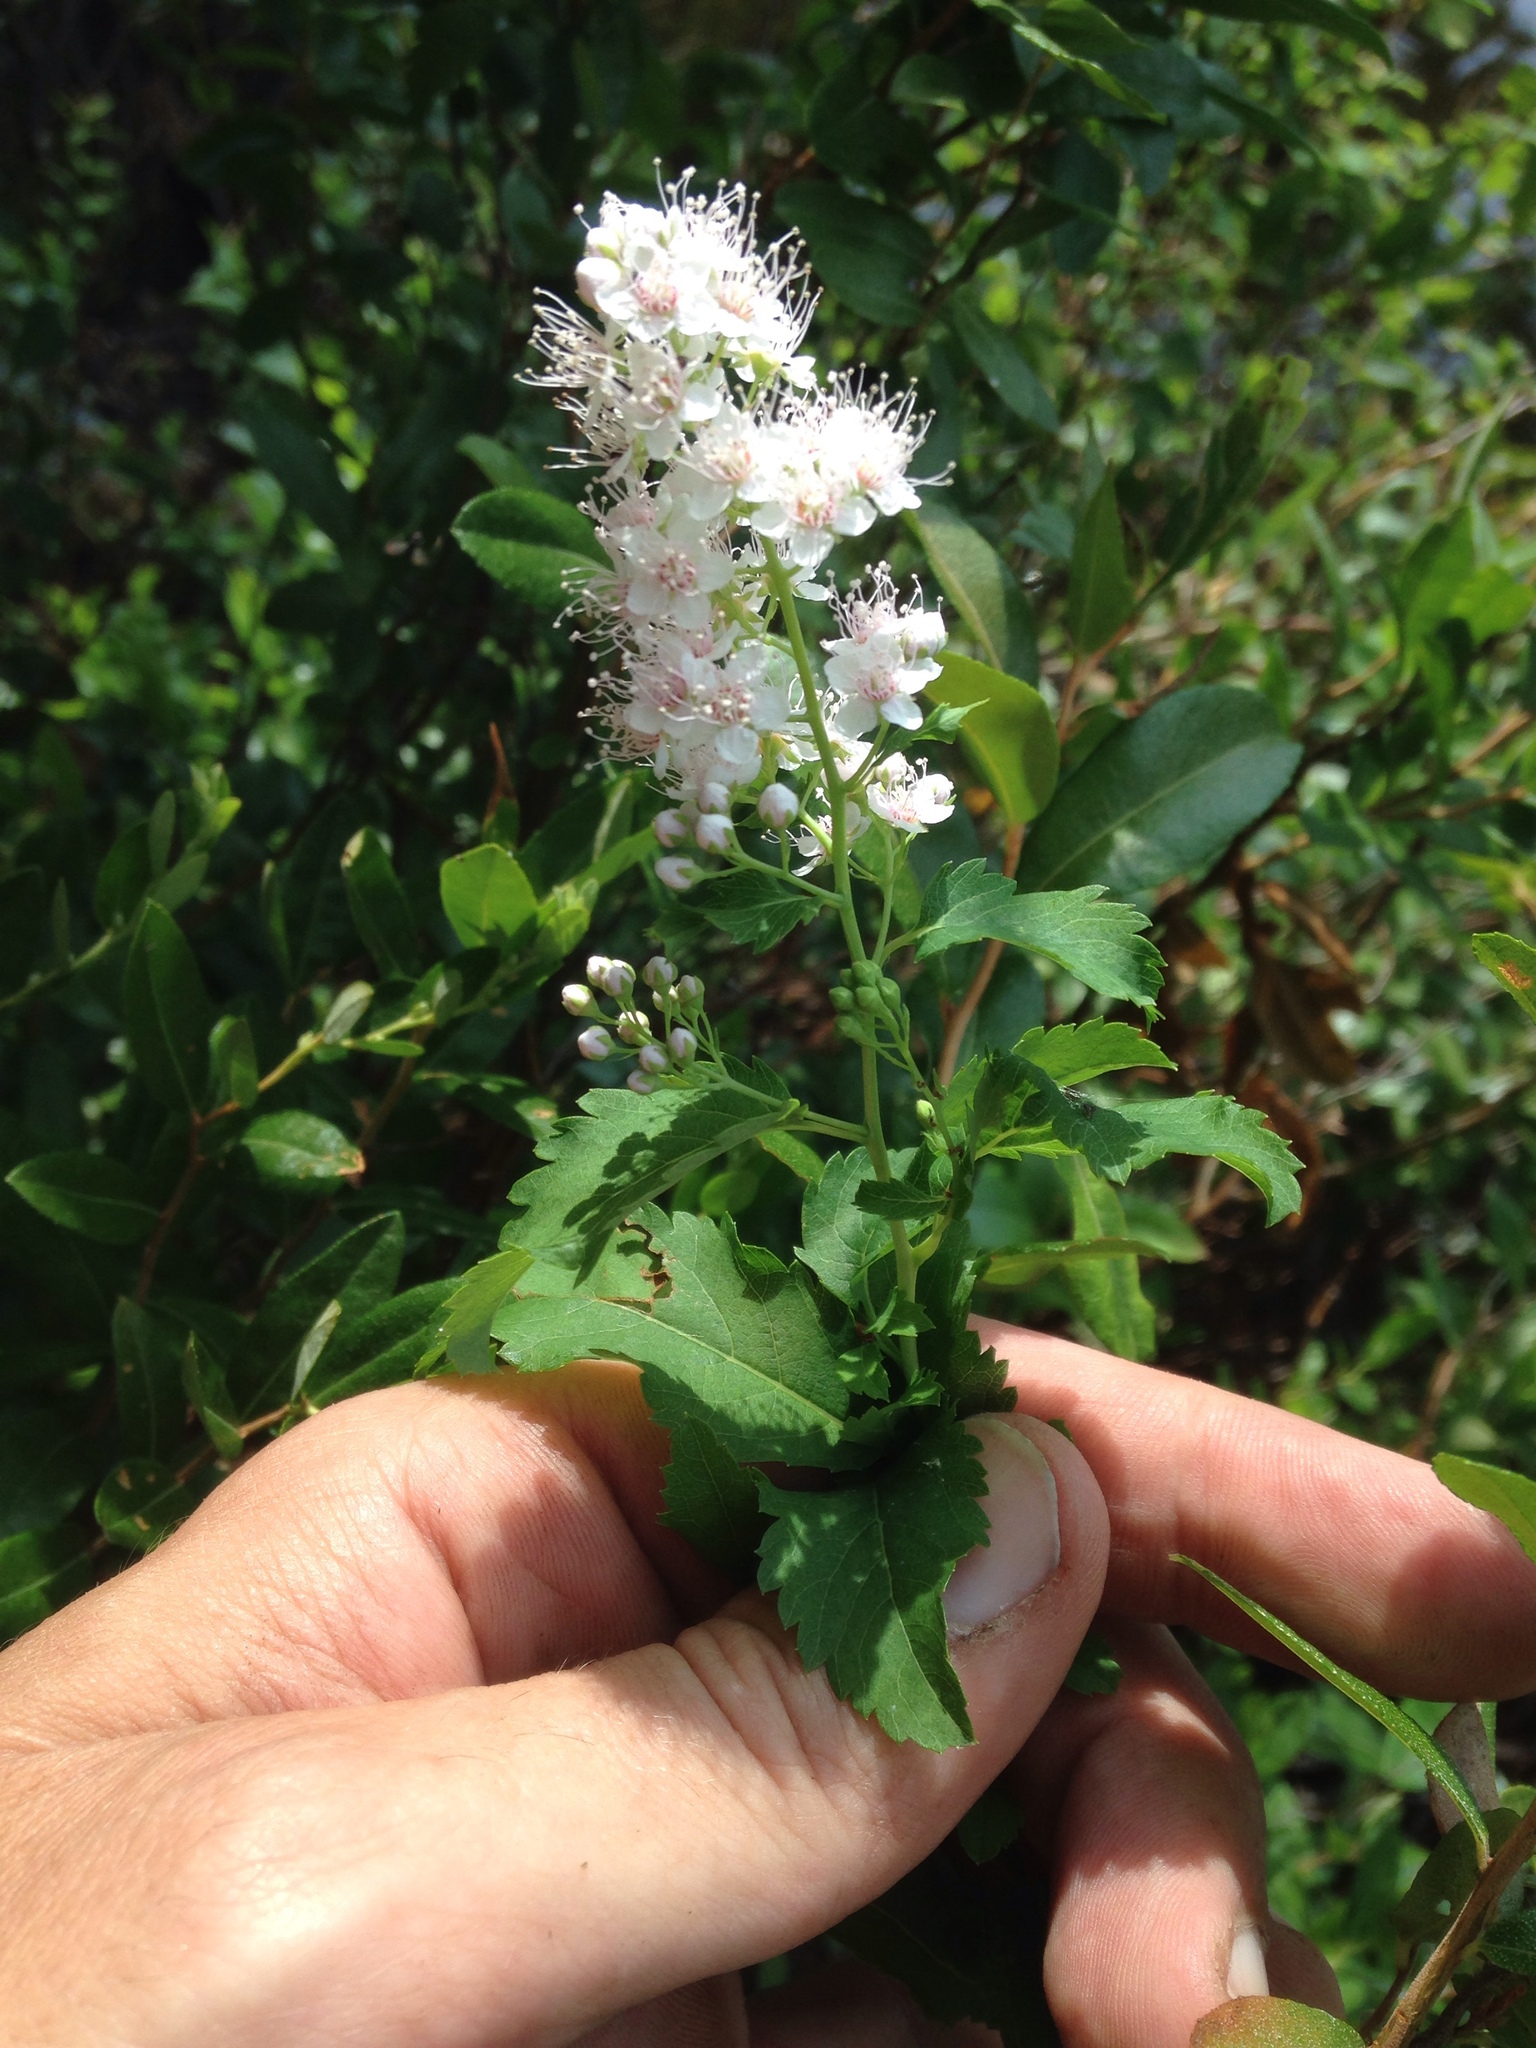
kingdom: Plantae
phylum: Tracheophyta
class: Magnoliopsida
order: Rosales
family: Rosaceae
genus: Spiraea
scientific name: Spiraea alba
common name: Pale bridewort
